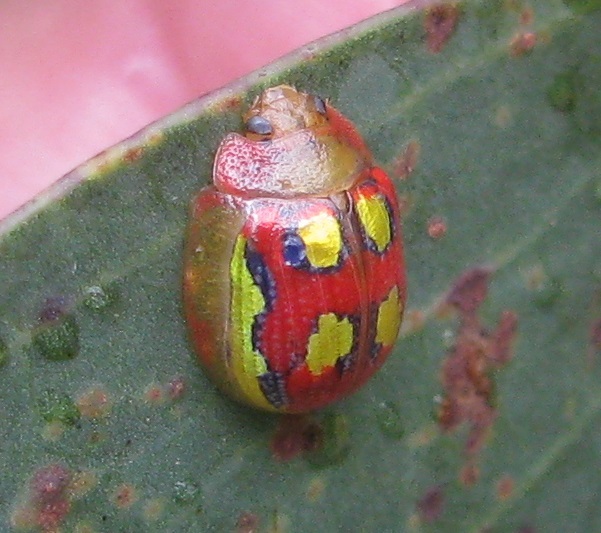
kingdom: Animalia
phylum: Arthropoda
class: Insecta
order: Coleoptera
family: Chrysomelidae
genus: Paropsisterna
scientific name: Paropsisterna
